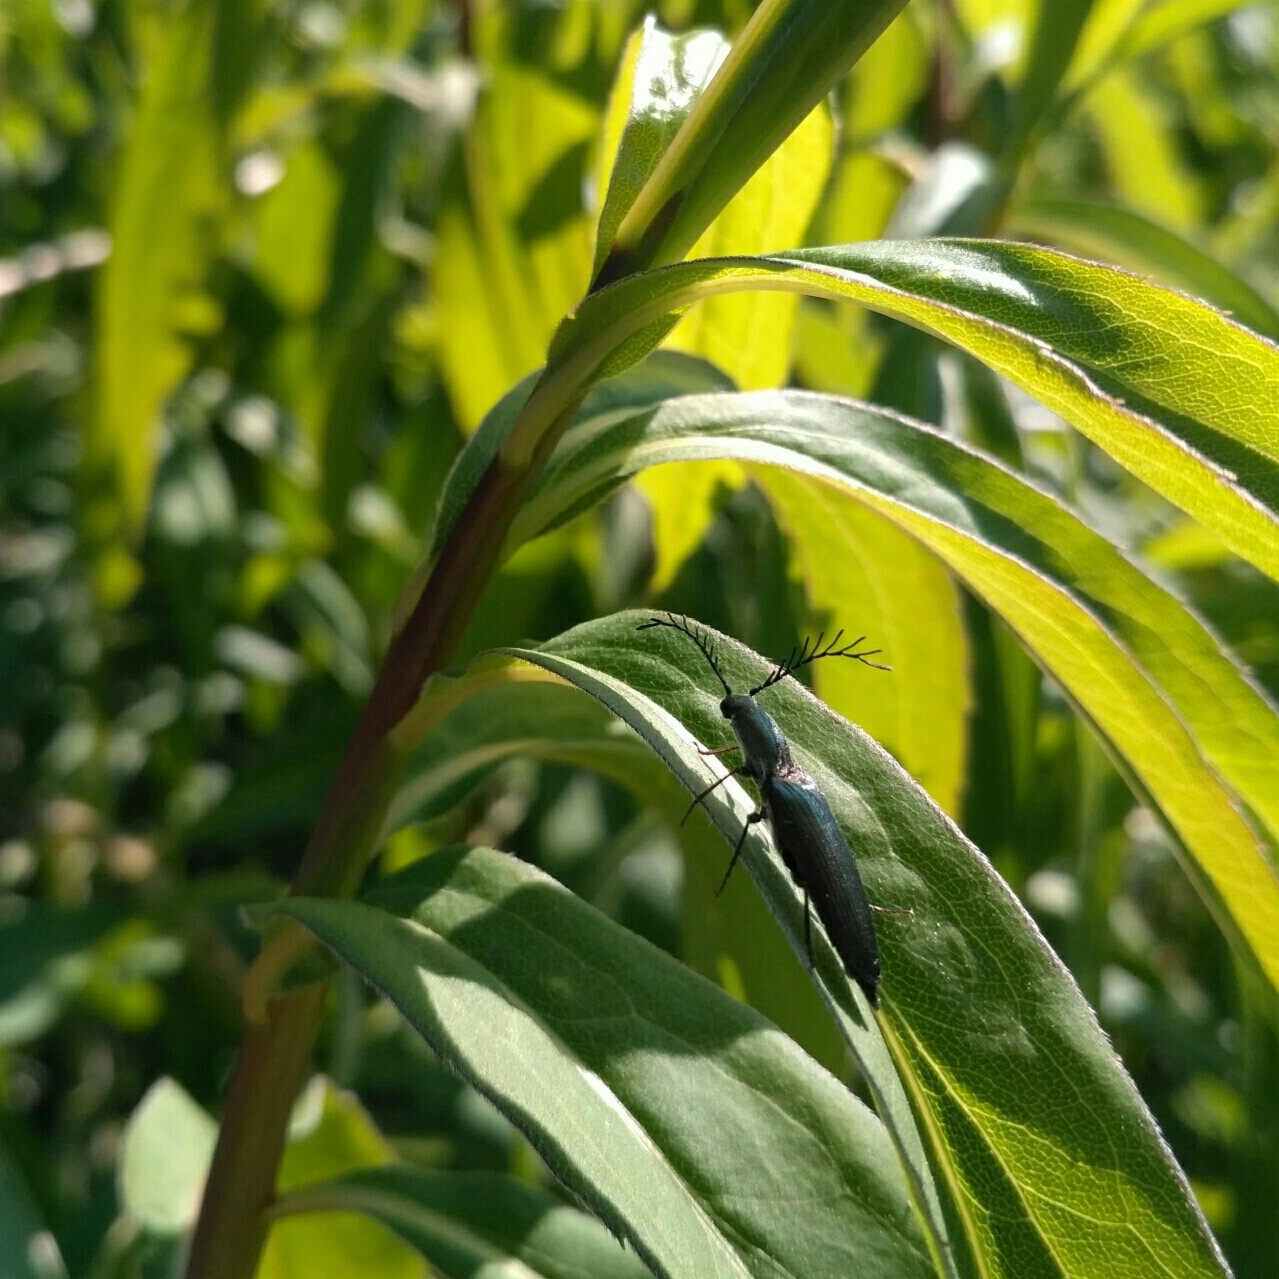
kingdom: Animalia
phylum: Arthropoda
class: Insecta
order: Coleoptera
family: Elateridae
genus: Ctenicera
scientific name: Ctenicera pectinicornis
